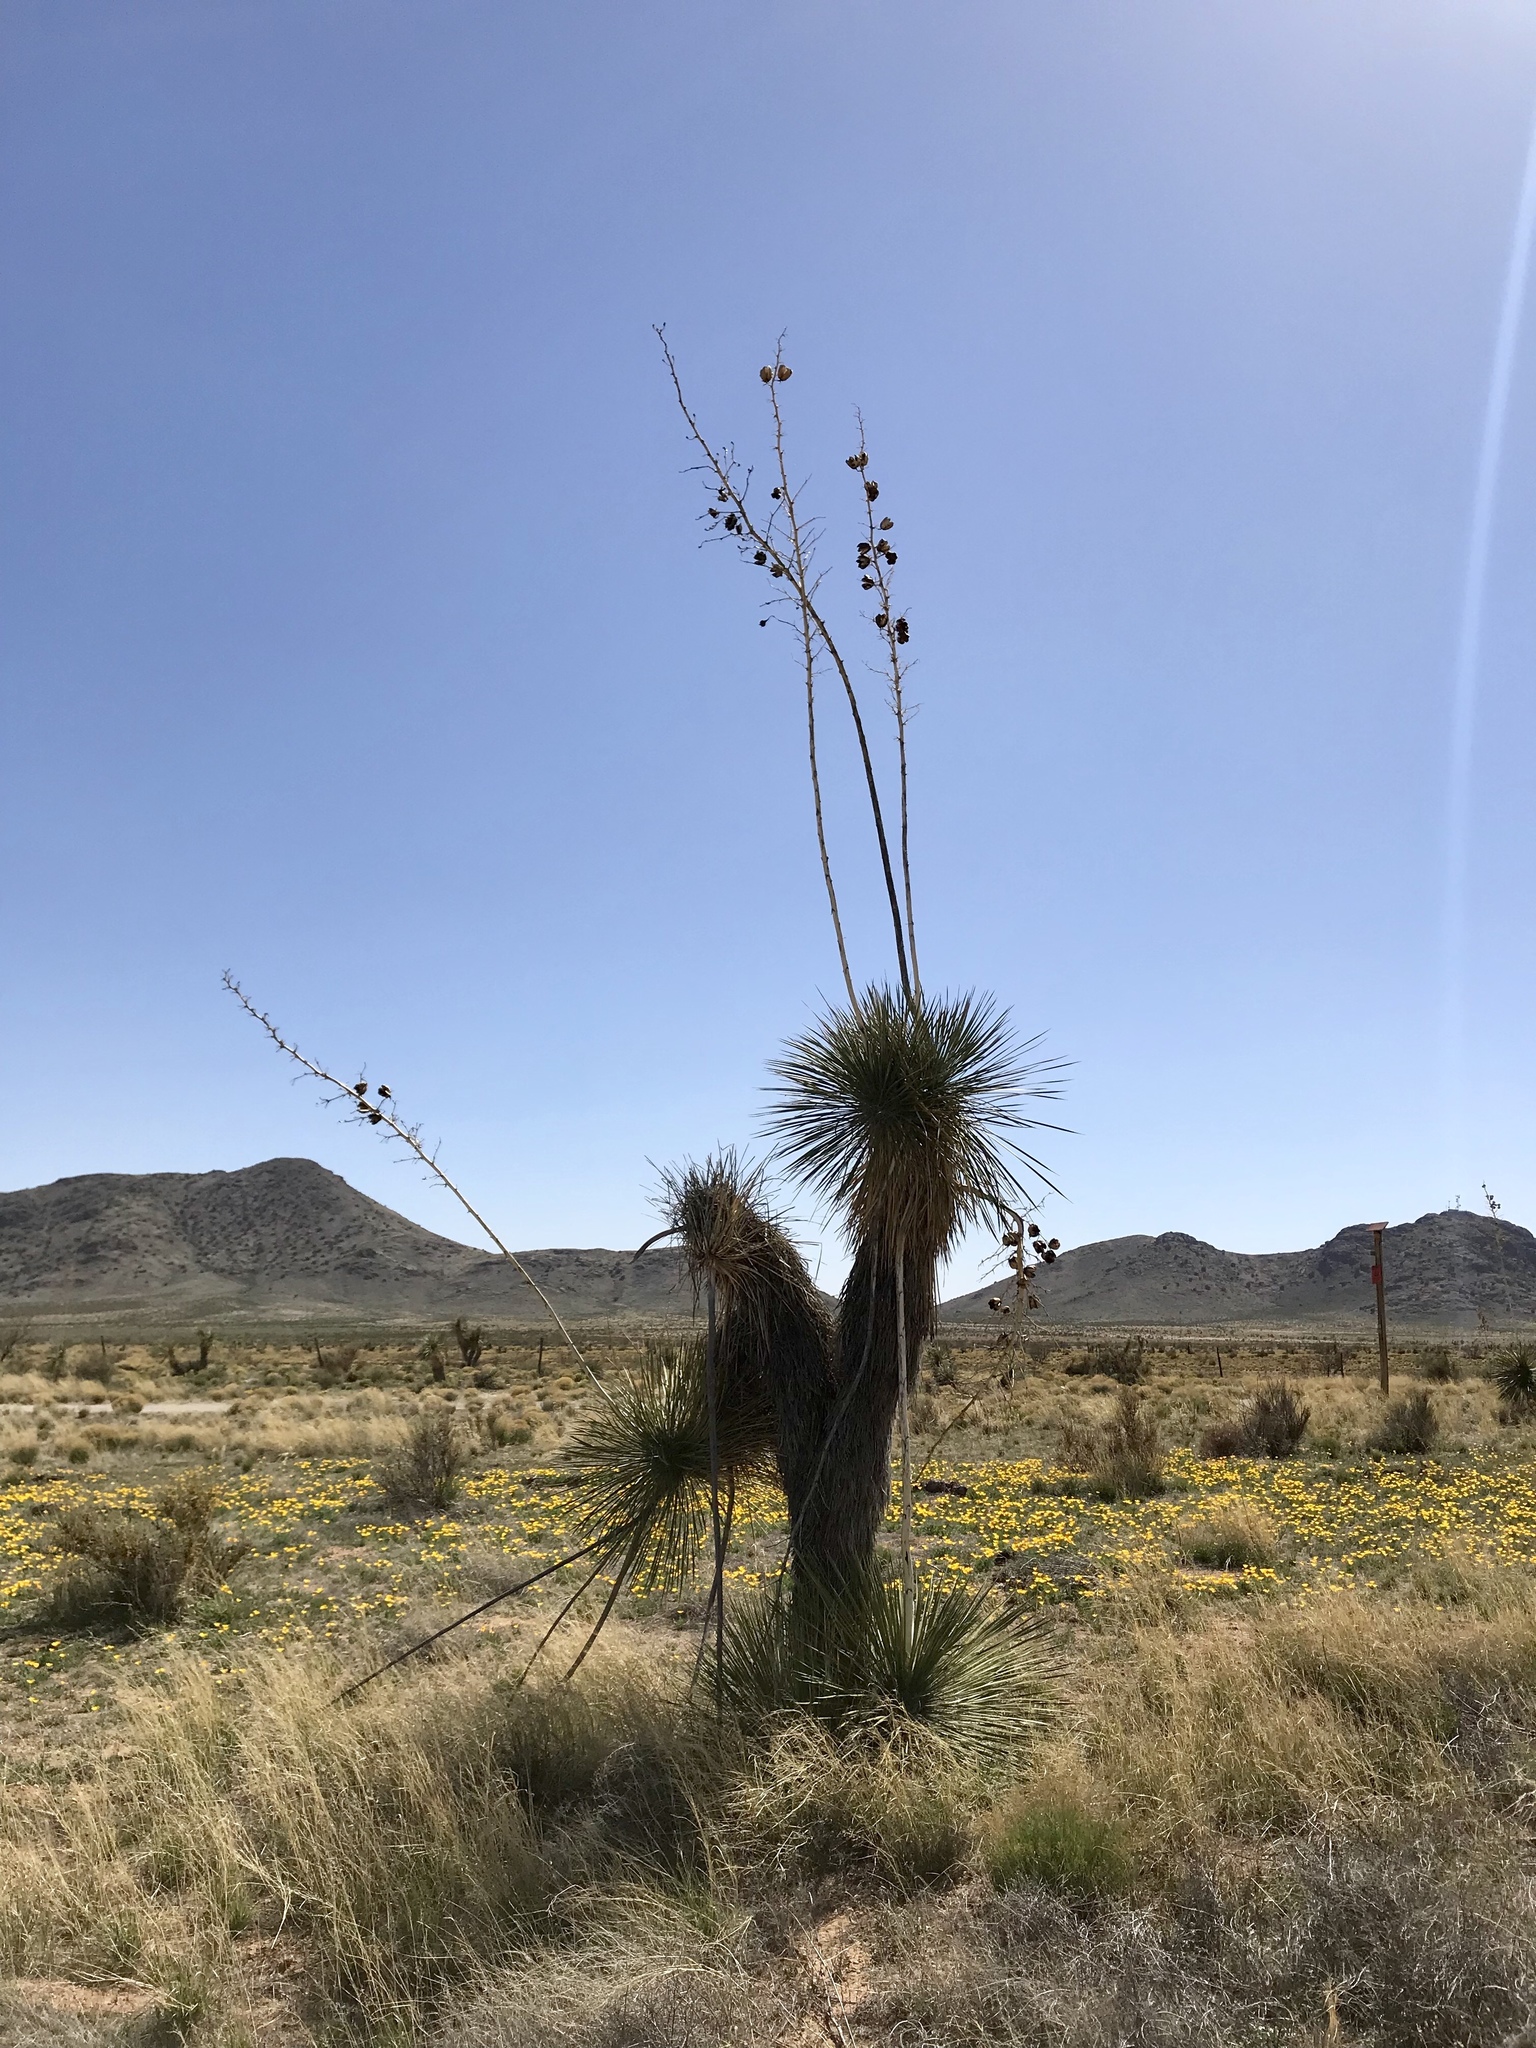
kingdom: Plantae
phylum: Tracheophyta
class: Liliopsida
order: Asparagales
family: Asparagaceae
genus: Yucca
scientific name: Yucca elata
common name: Palmella
